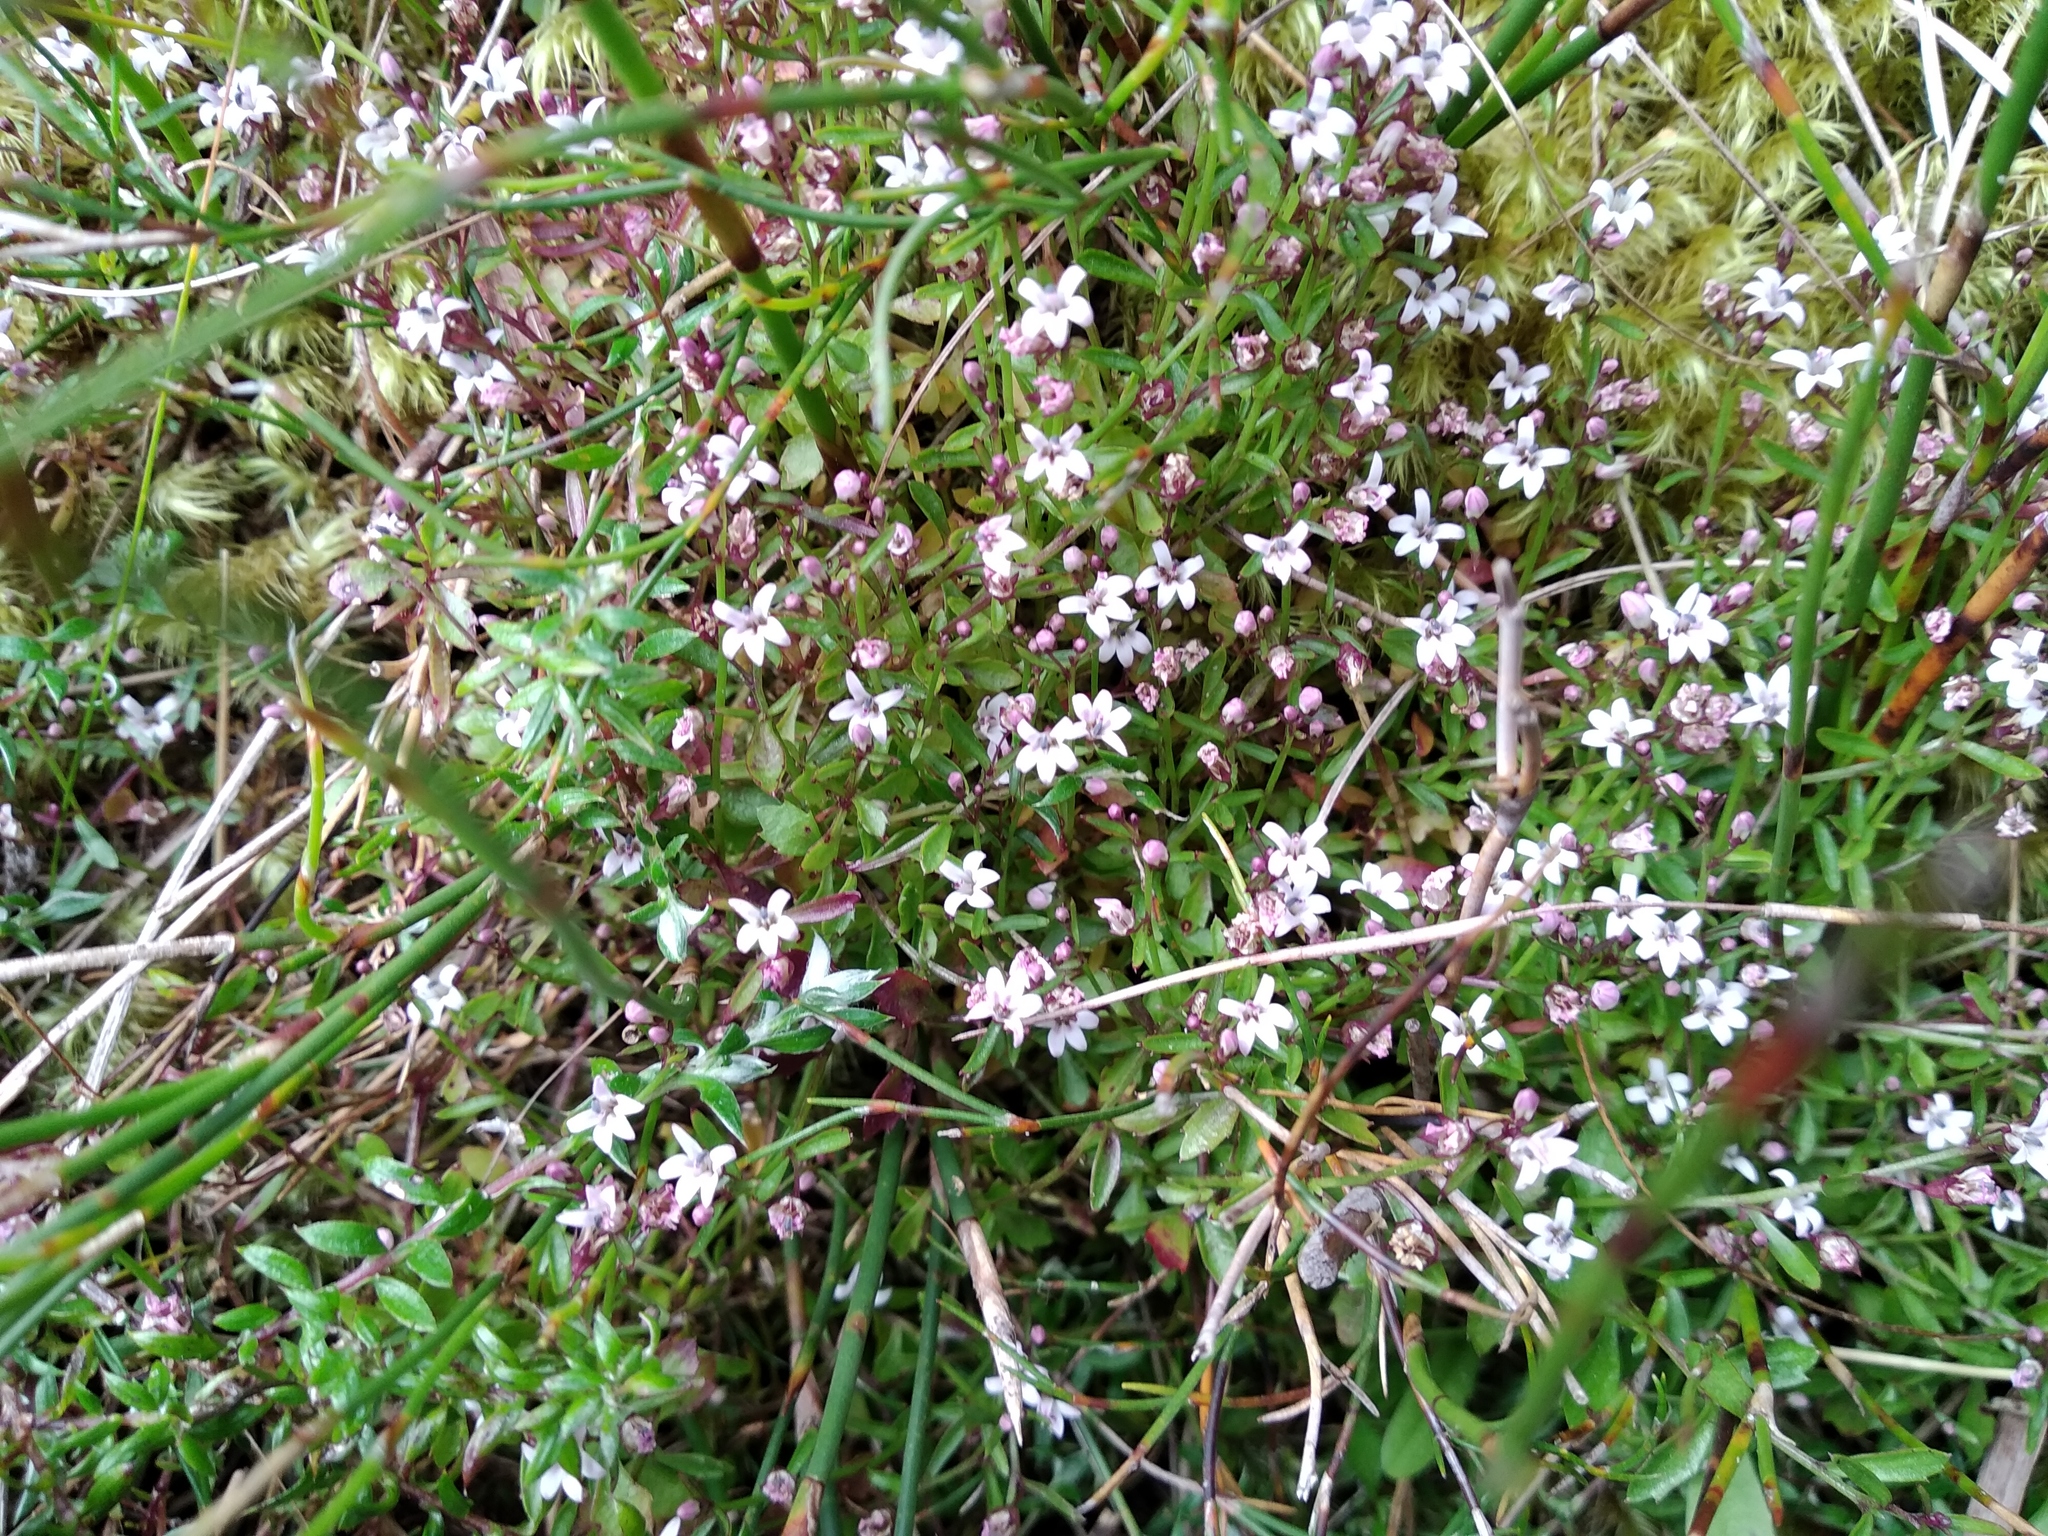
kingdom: Plantae
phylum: Tracheophyta
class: Magnoliopsida
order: Asterales
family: Campanulaceae
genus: Lobelia
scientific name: Lobelia eckloniana
